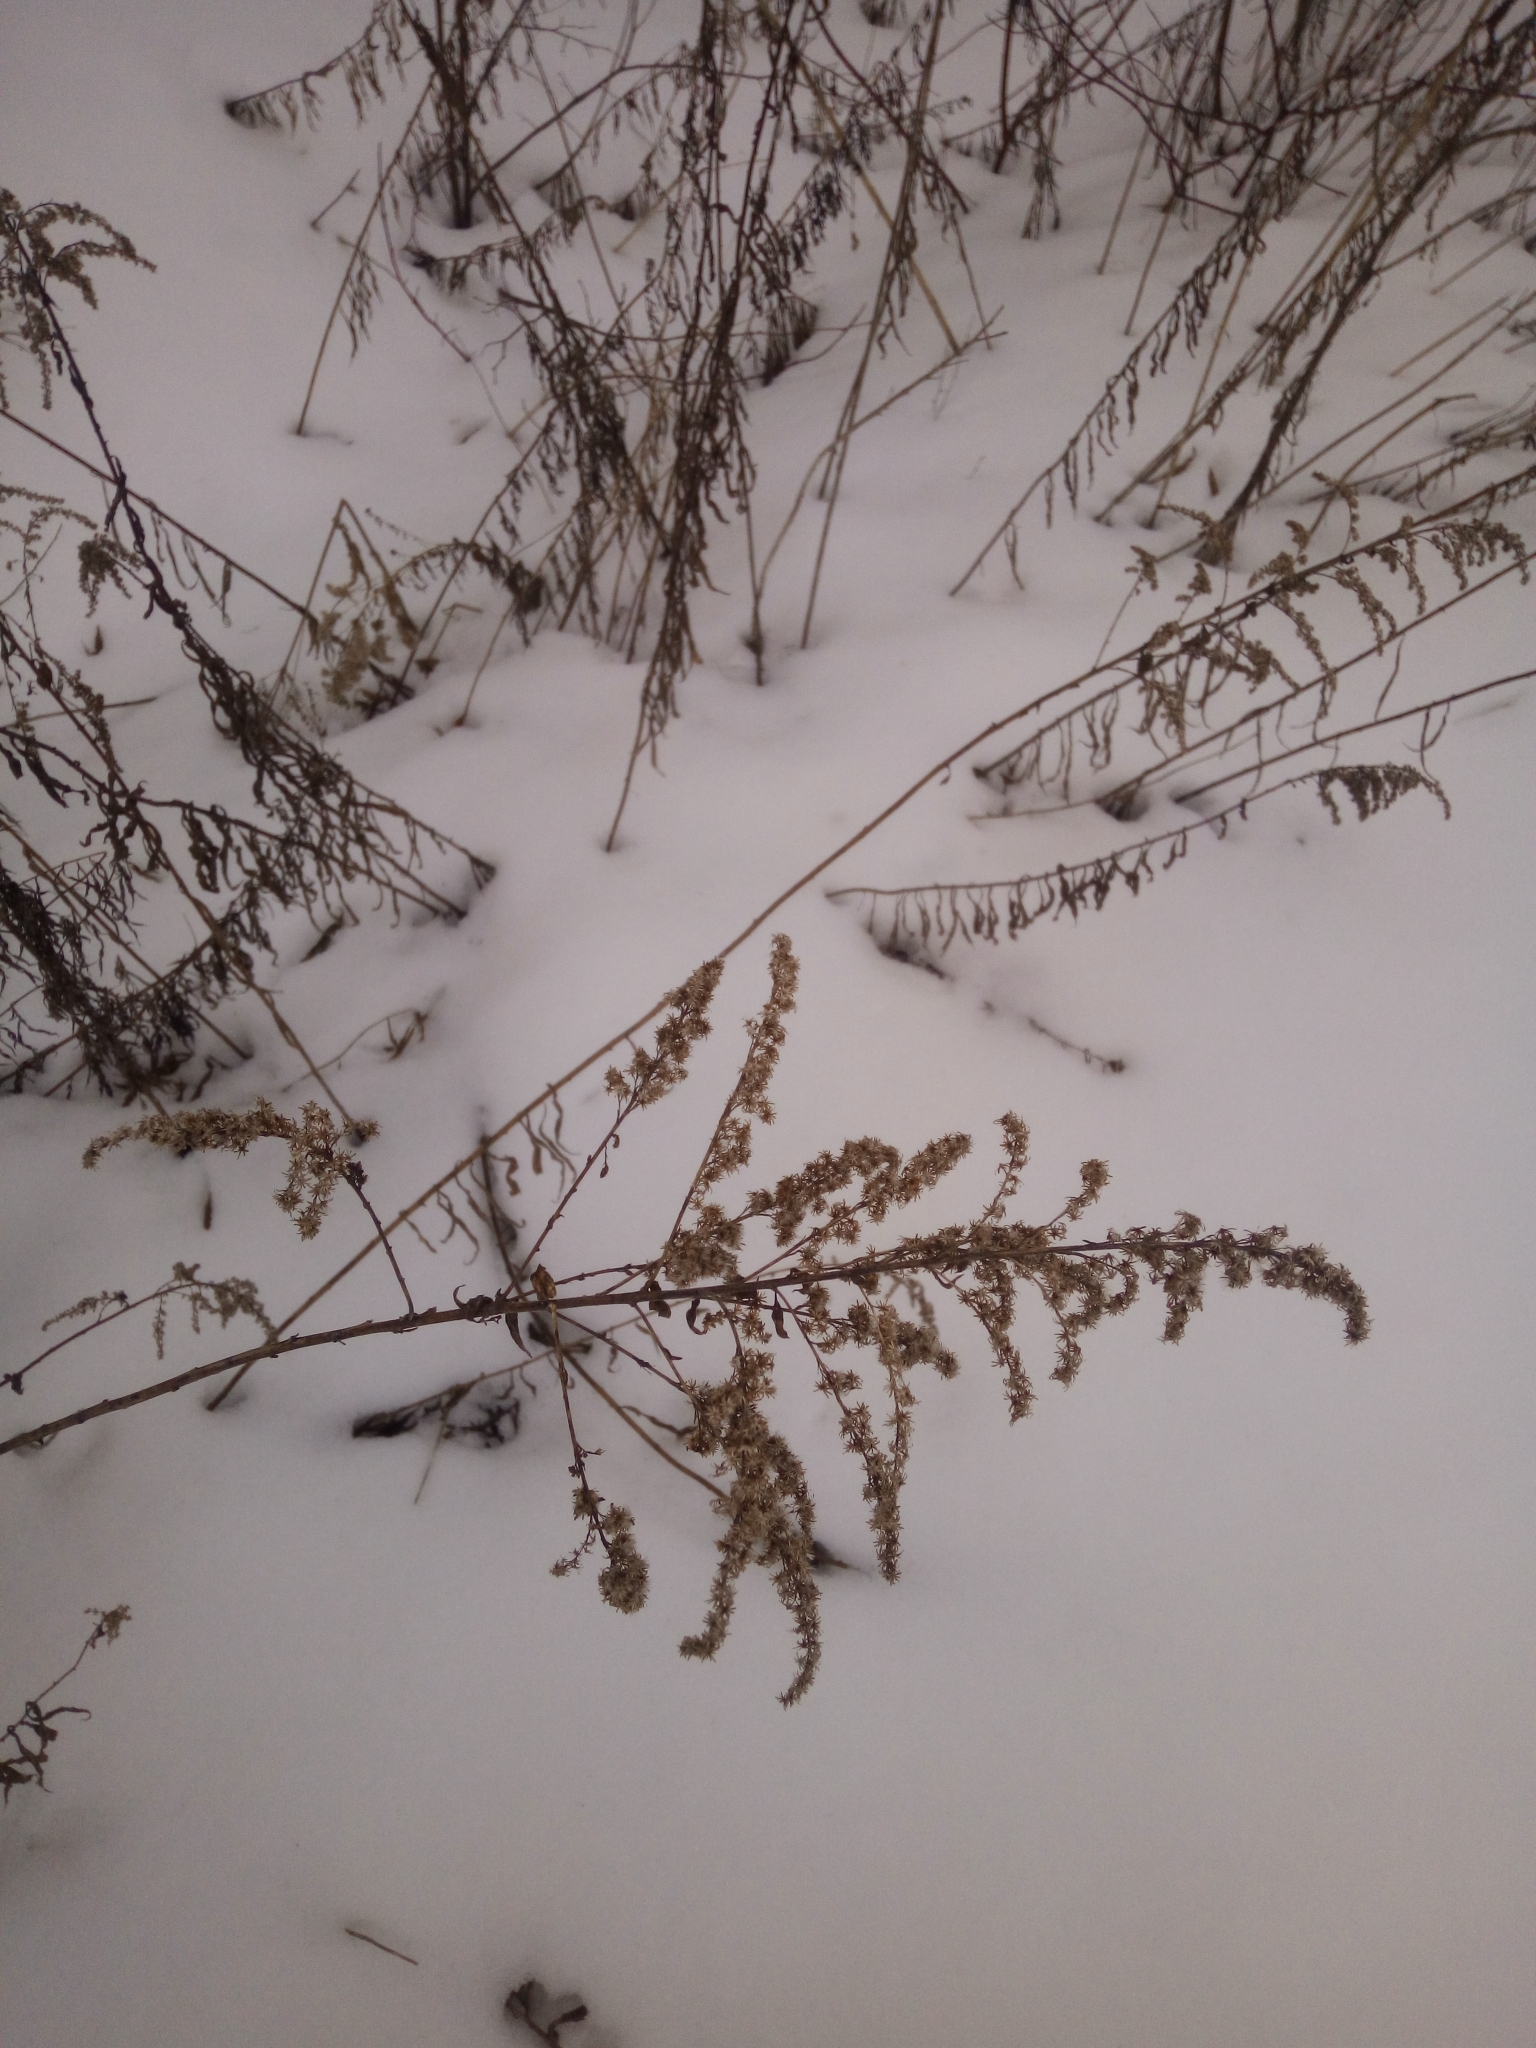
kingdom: Plantae
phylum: Tracheophyta
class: Magnoliopsida
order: Asterales
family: Asteraceae
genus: Solidago
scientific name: Solidago canadensis
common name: Canada goldenrod
